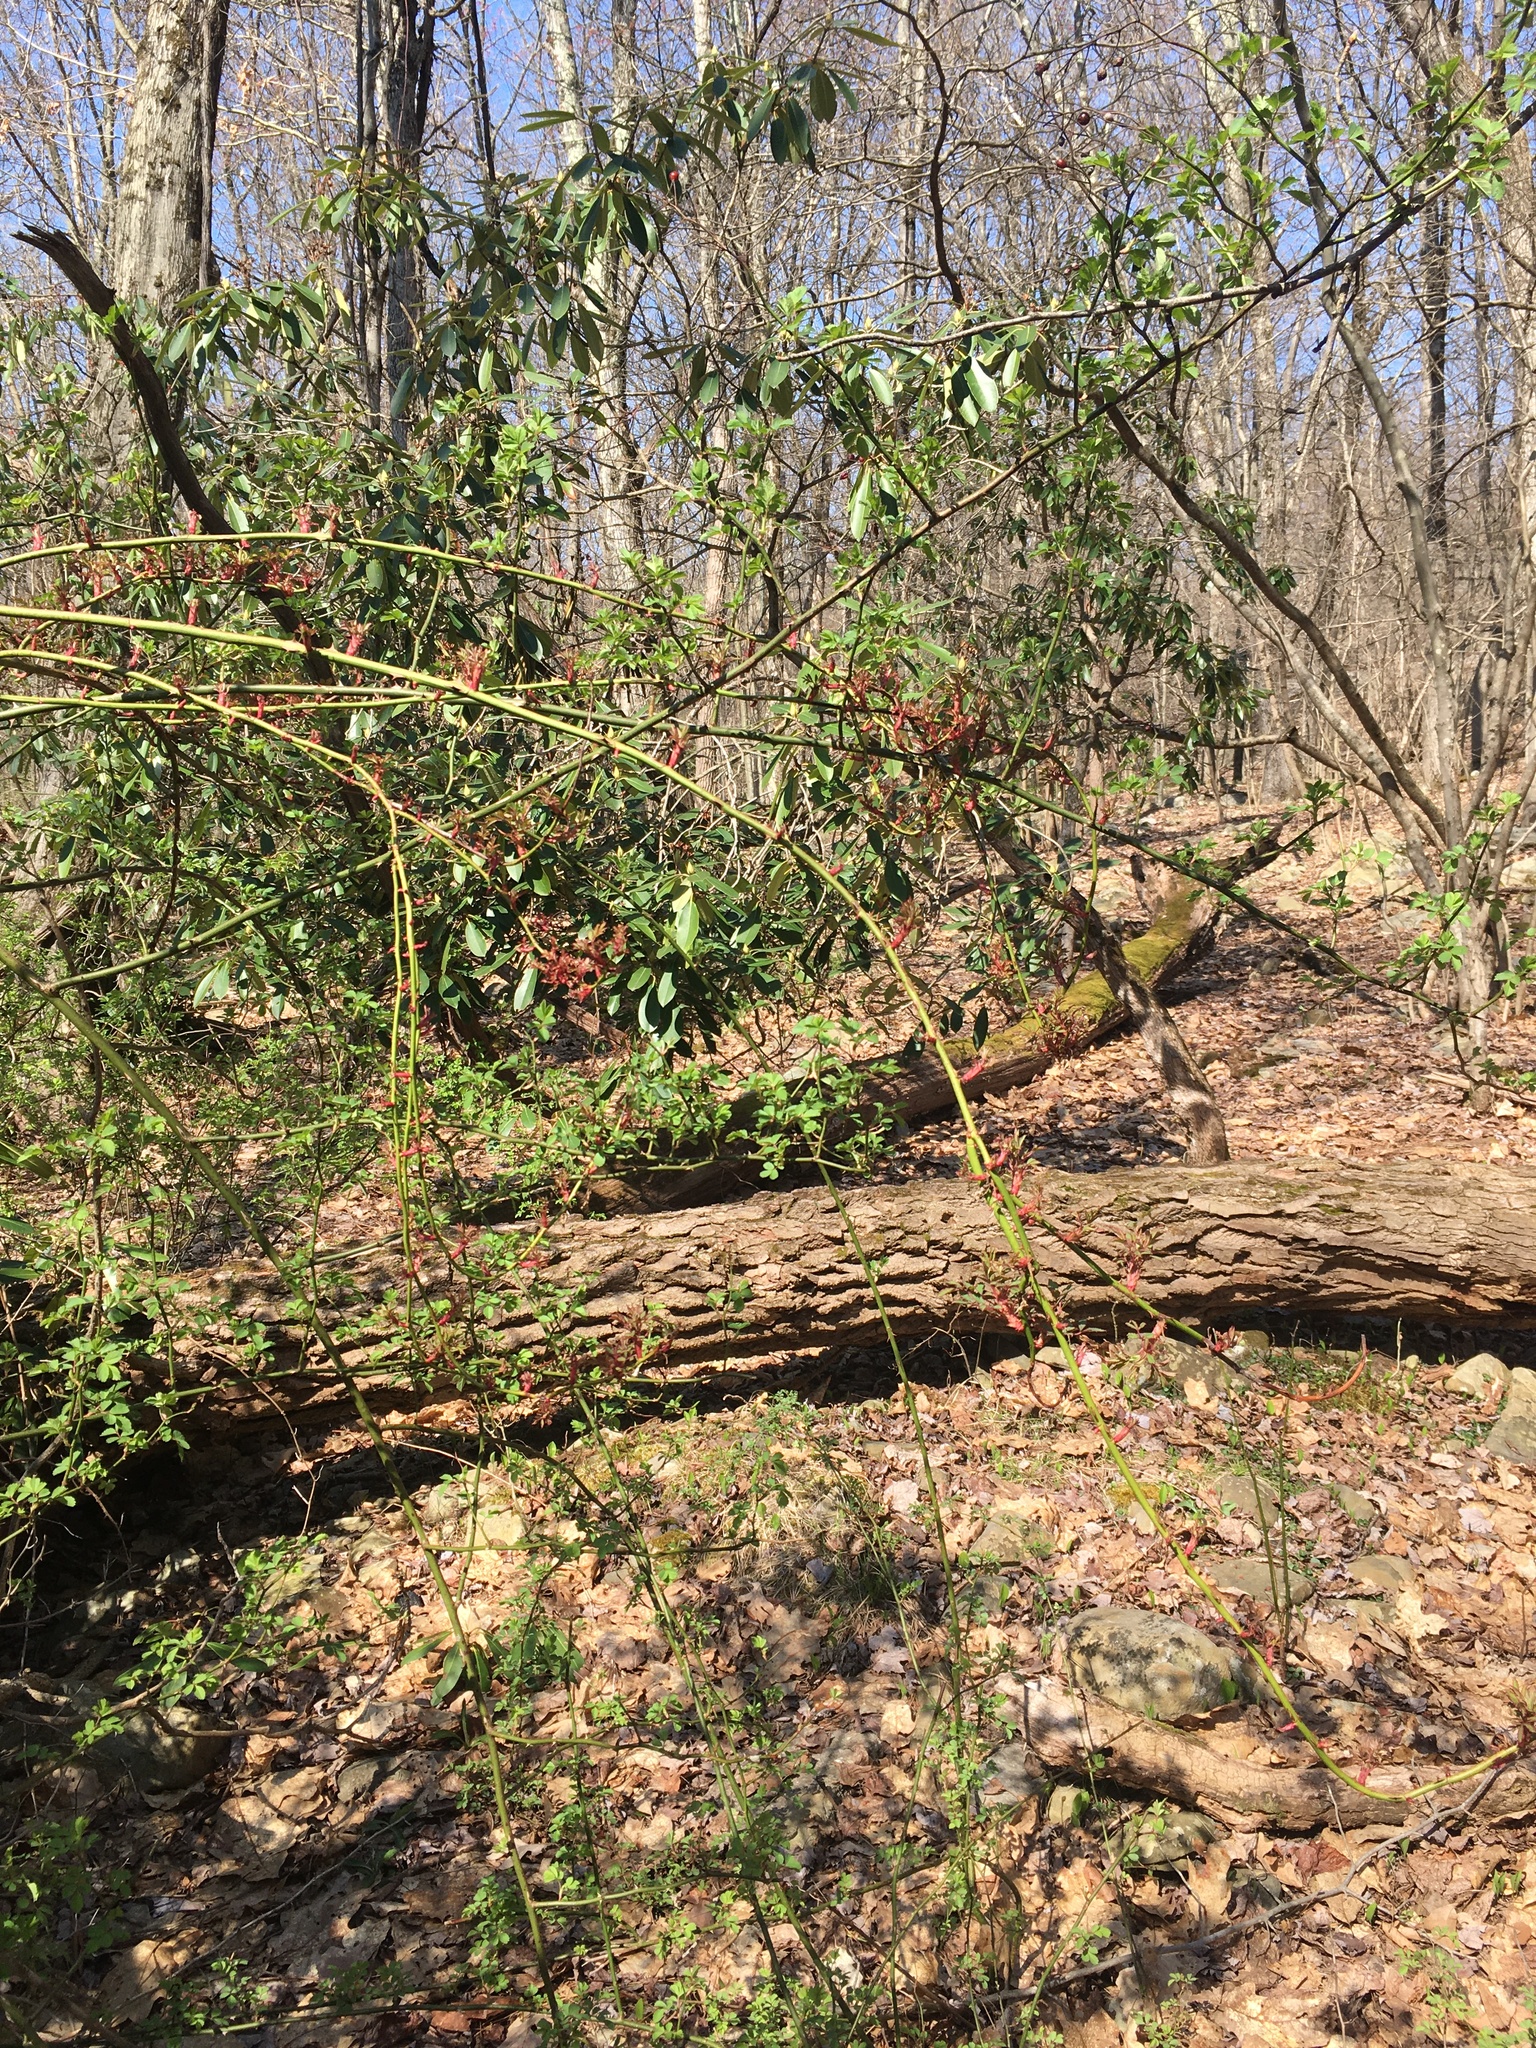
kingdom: Plantae
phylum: Tracheophyta
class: Magnoliopsida
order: Rosales
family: Rosaceae
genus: Rosa
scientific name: Rosa multiflora
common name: Multiflora rose
